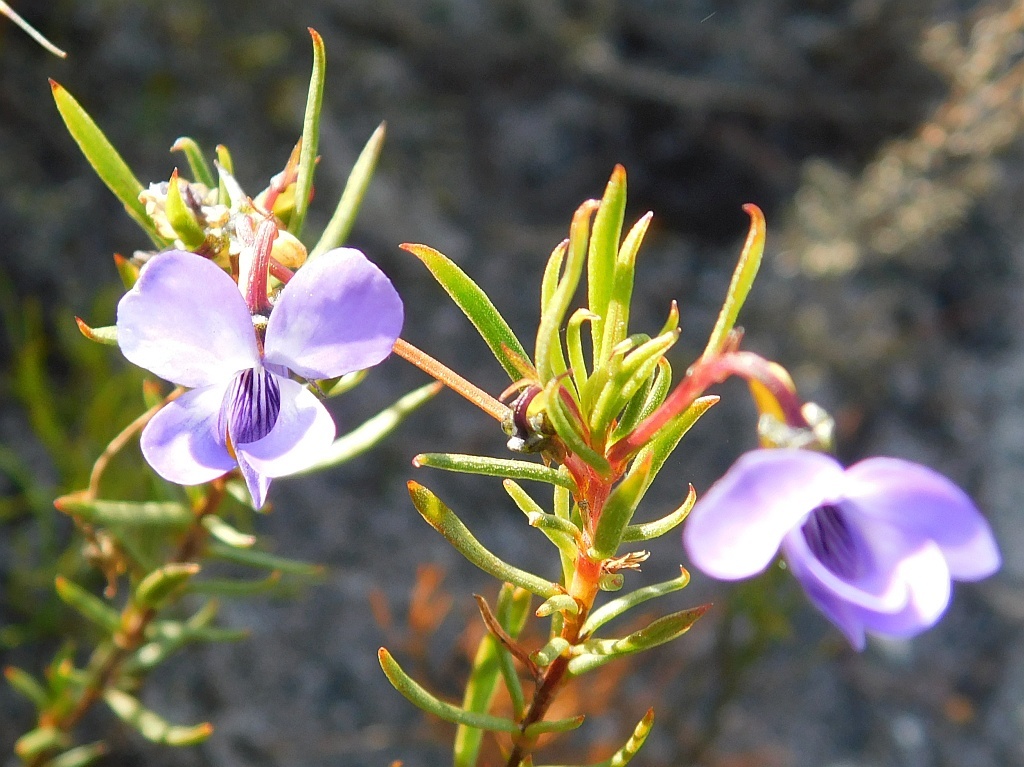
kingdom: Plantae
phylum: Tracheophyta
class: Magnoliopsida
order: Malpighiales
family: Violaceae
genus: Viola
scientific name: Viola decumbens
